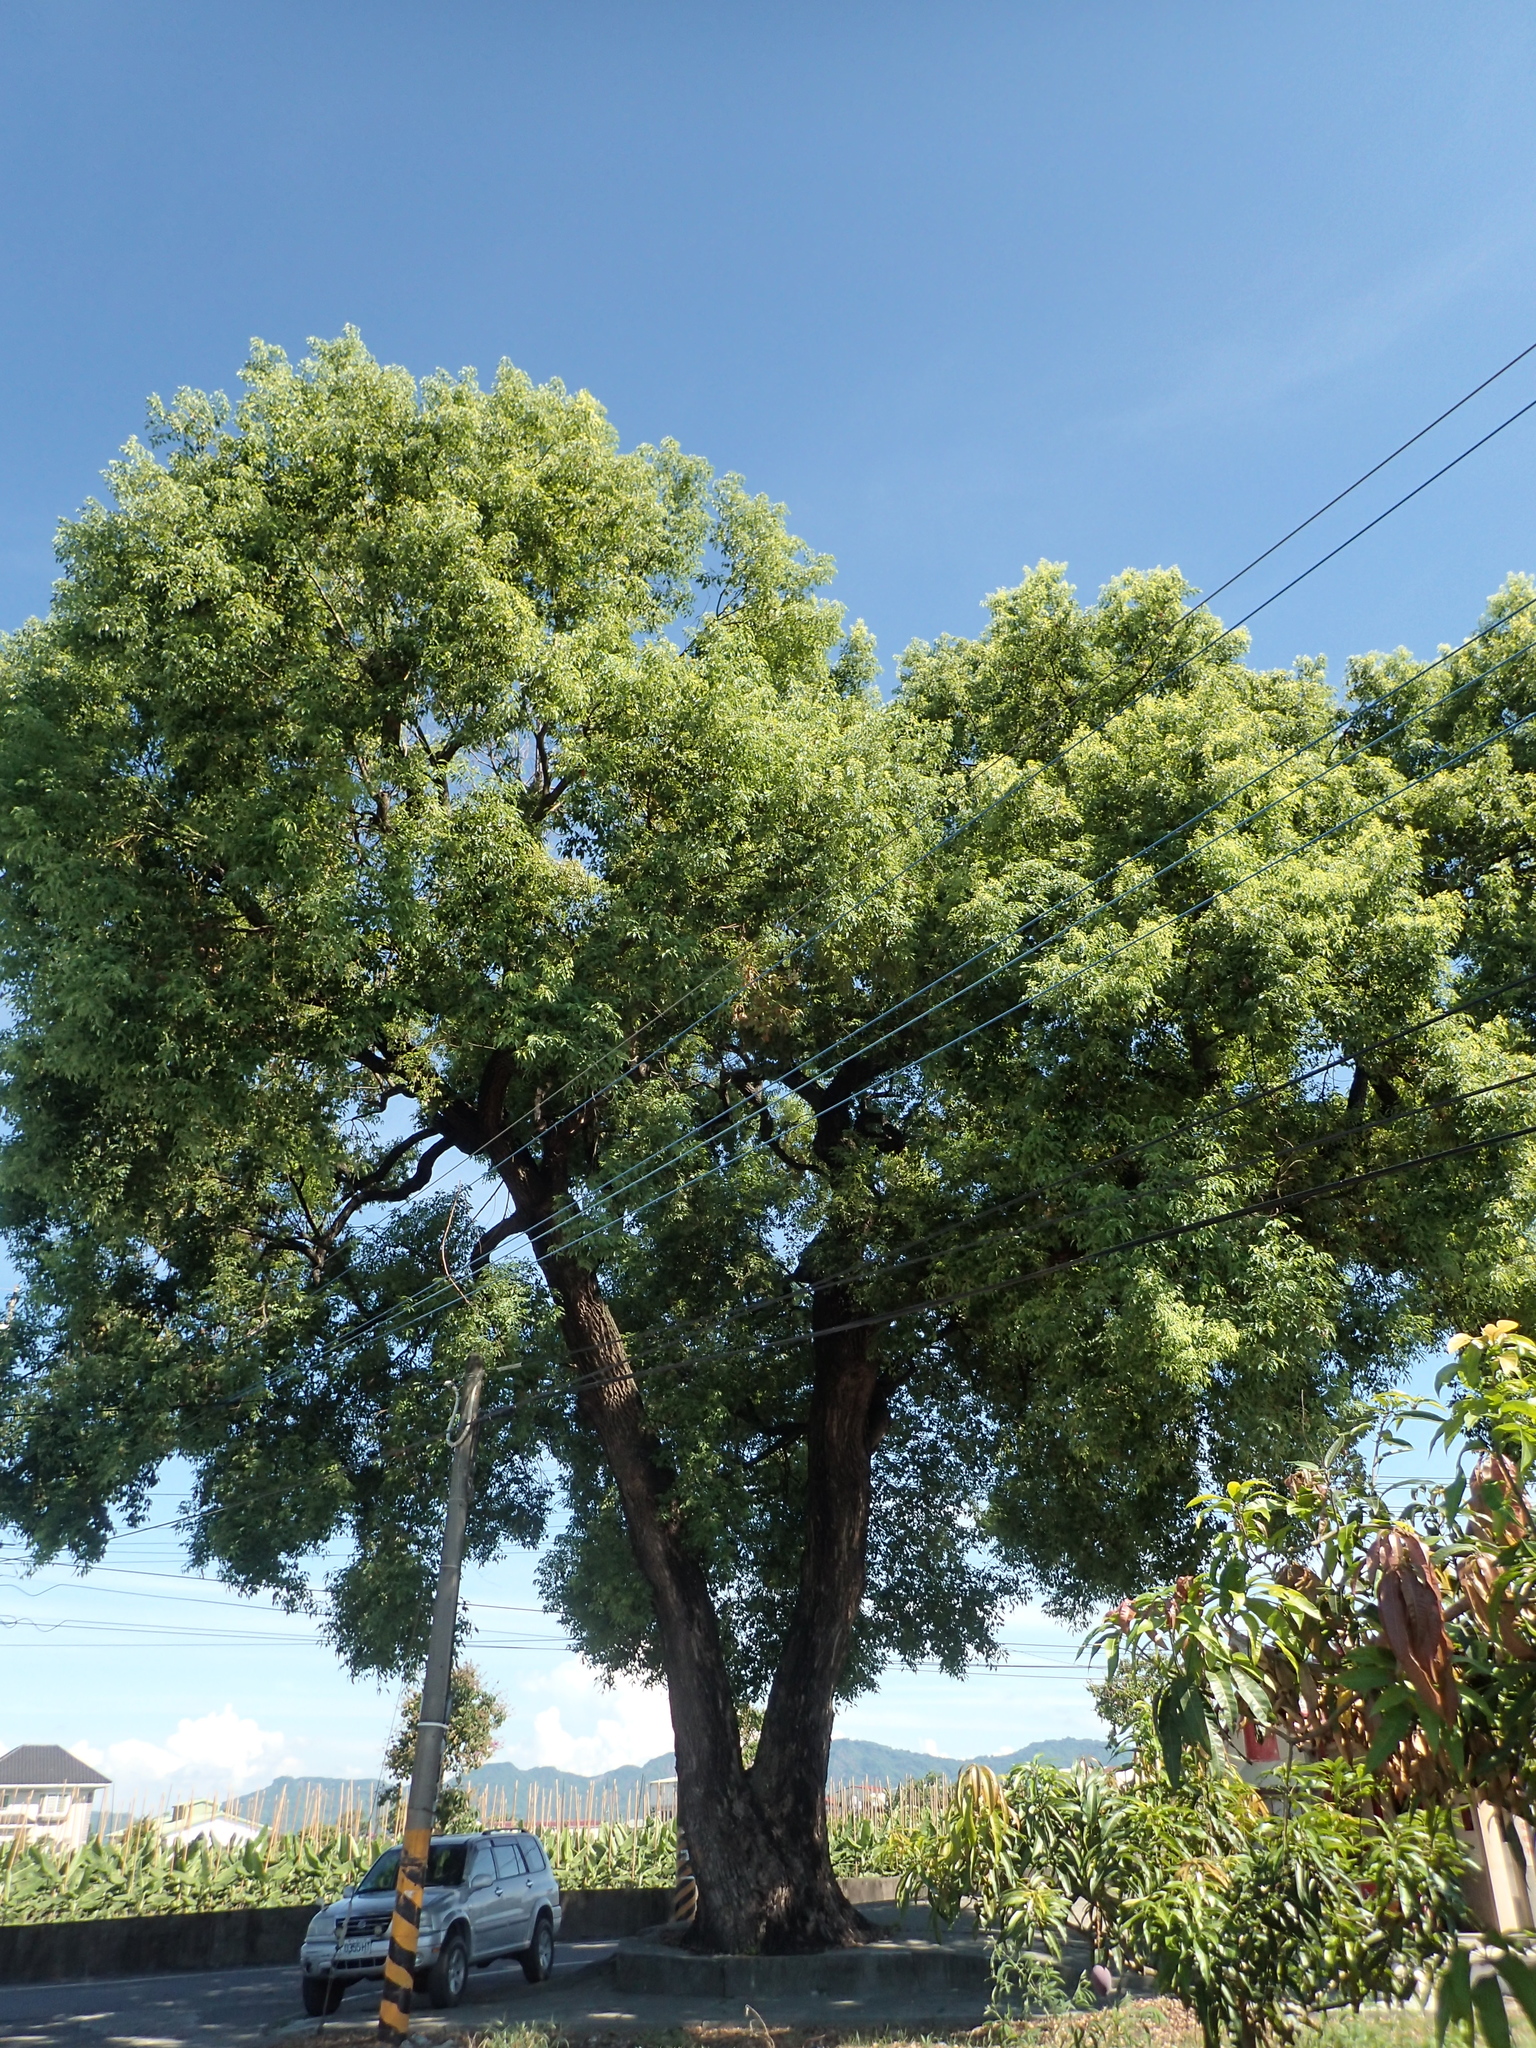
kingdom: Plantae
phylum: Tracheophyta
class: Magnoliopsida
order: Laurales
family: Lauraceae
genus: Cinnamomum
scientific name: Cinnamomum camphora
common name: Camphortree
